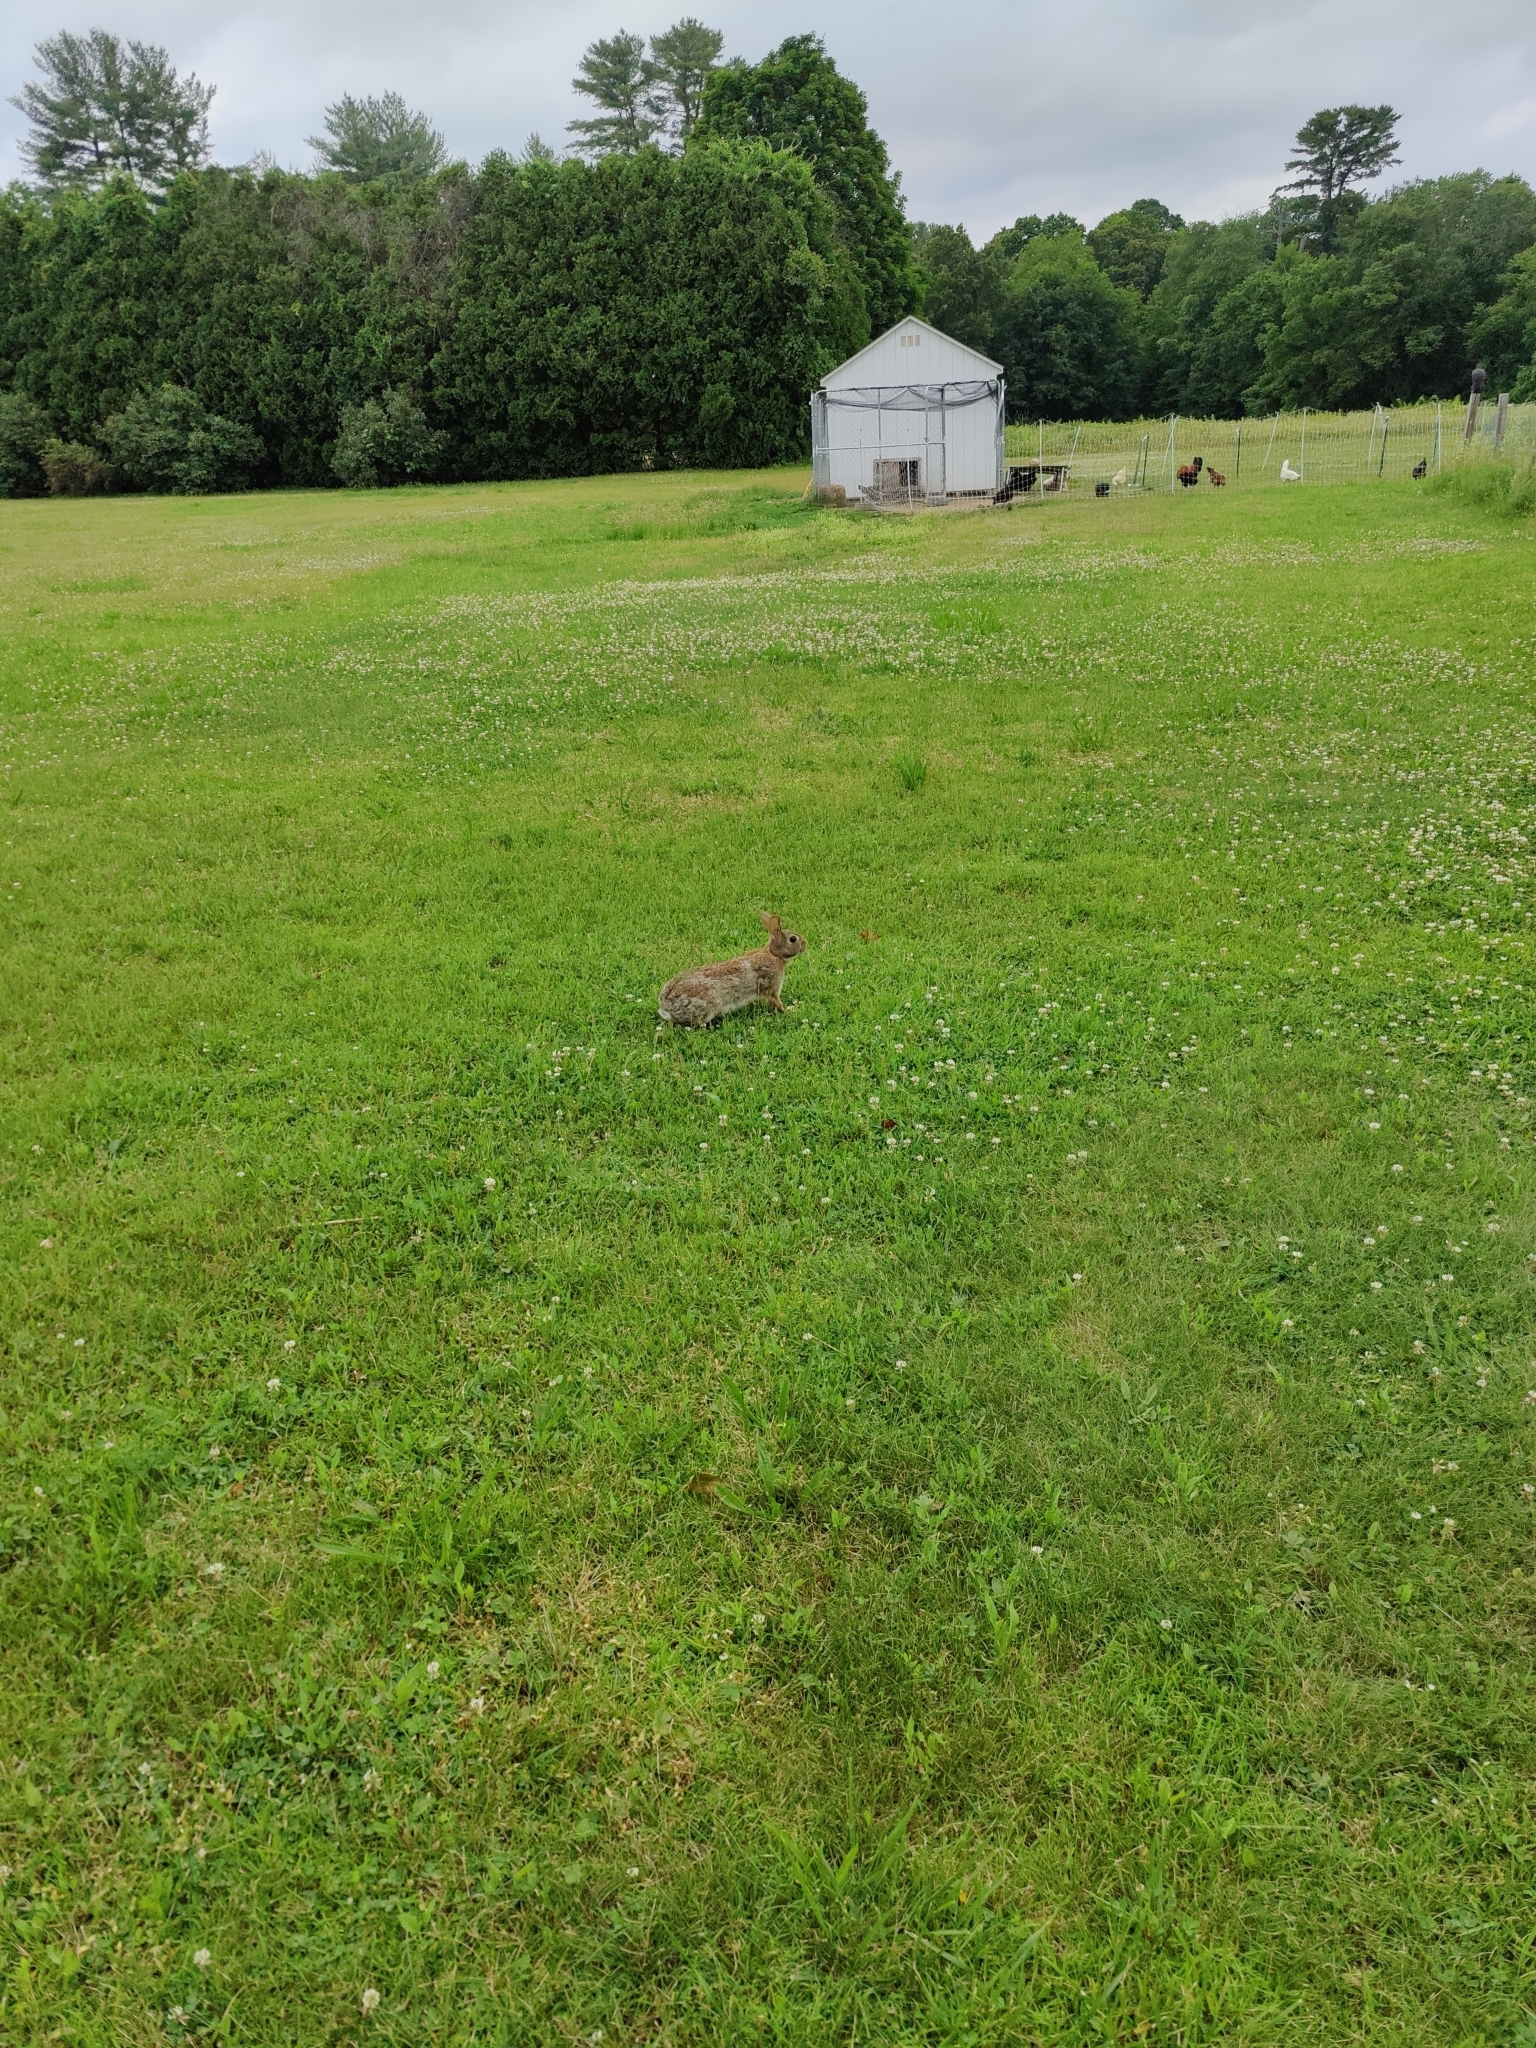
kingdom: Animalia
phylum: Chordata
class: Mammalia
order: Lagomorpha
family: Leporidae
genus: Sylvilagus
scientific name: Sylvilagus floridanus
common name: Eastern cottontail
